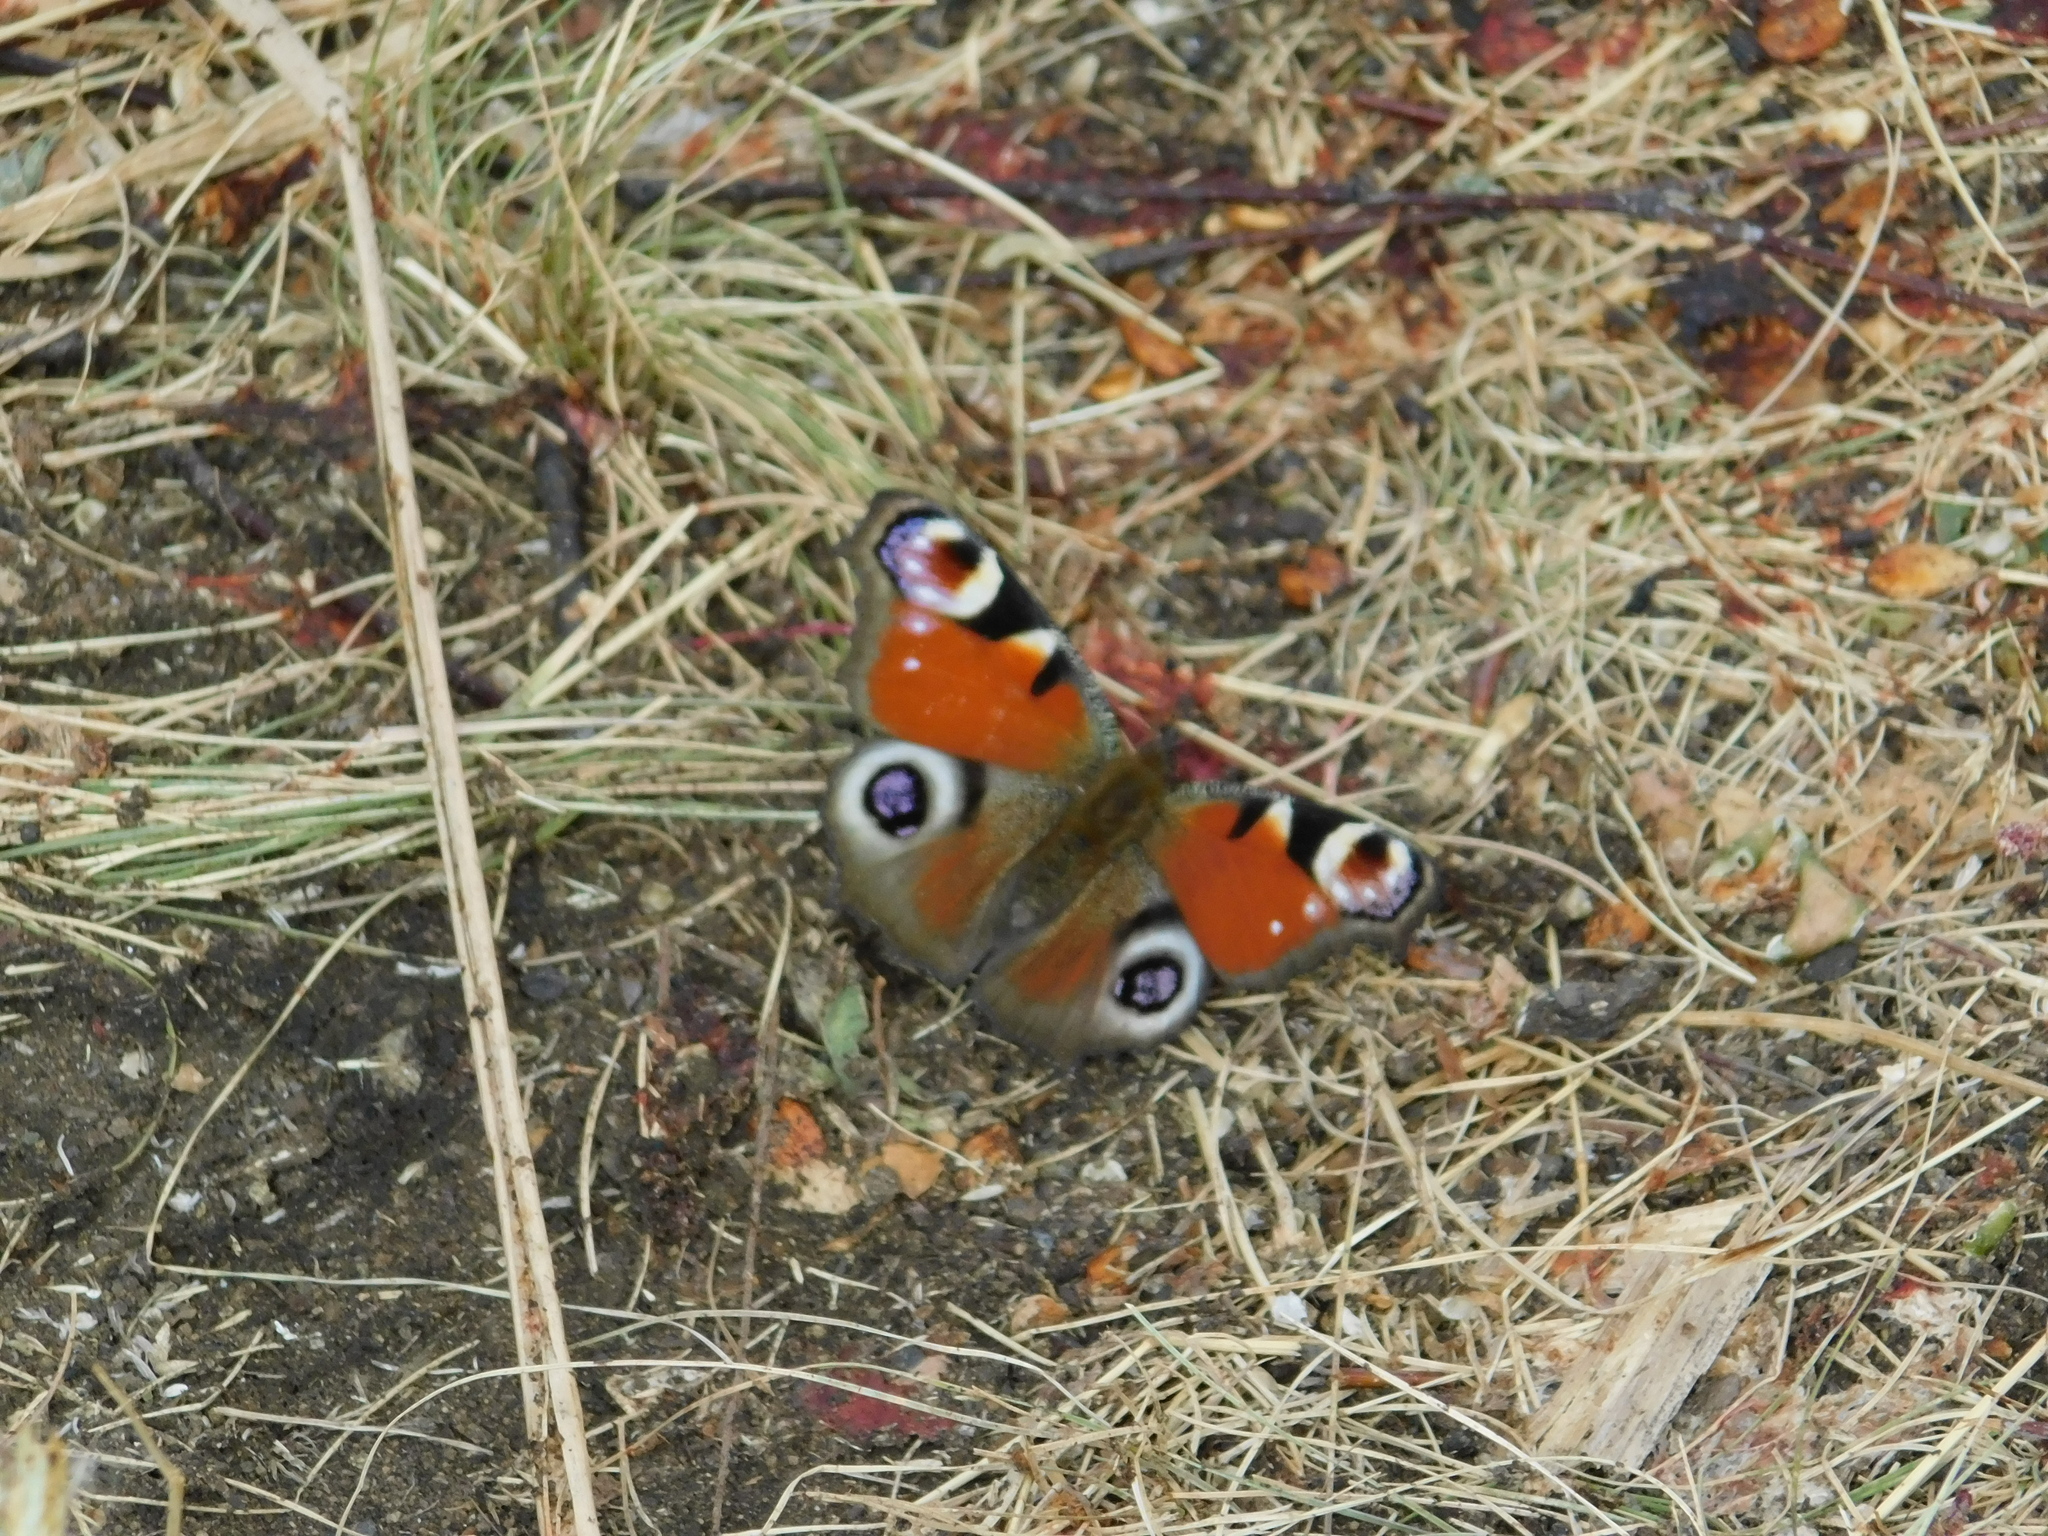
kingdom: Animalia
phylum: Arthropoda
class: Insecta
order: Lepidoptera
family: Nymphalidae
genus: Aglais
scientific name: Aglais io
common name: Peacock
